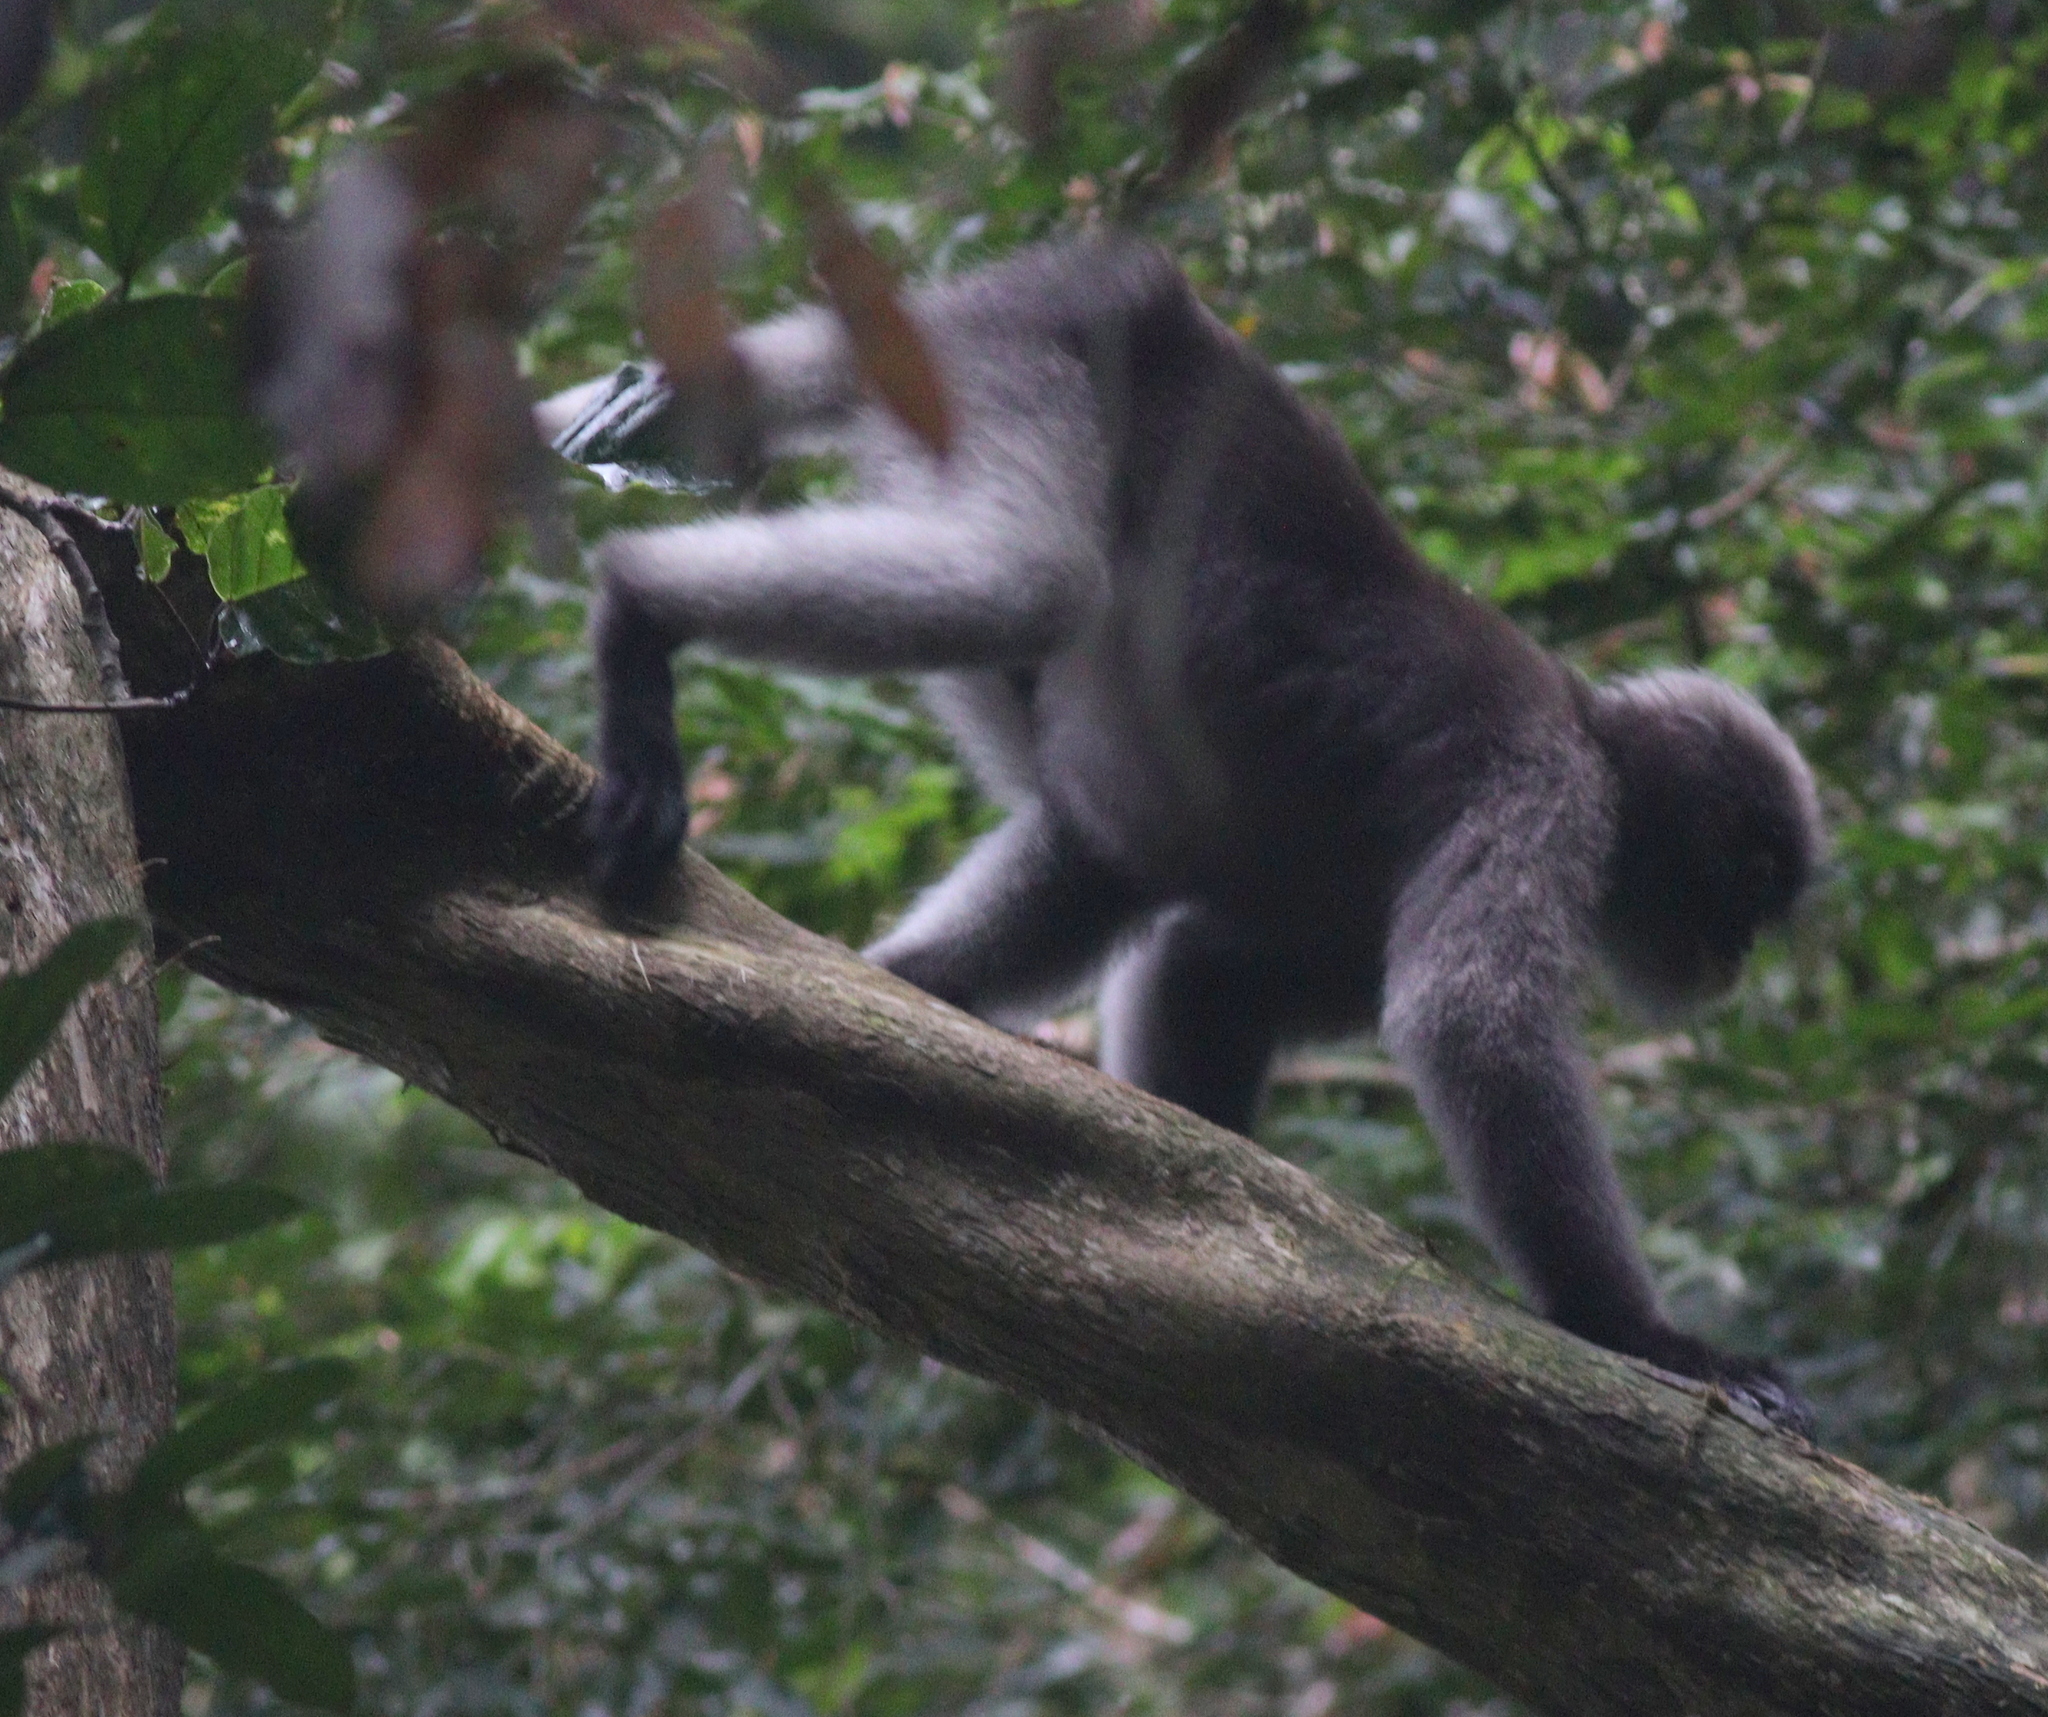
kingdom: Animalia
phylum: Chordata
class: Mammalia
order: Primates
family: Cercopithecidae
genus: Trachypithecus
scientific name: Trachypithecus obscurus
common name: Dusky leaf-monkey
